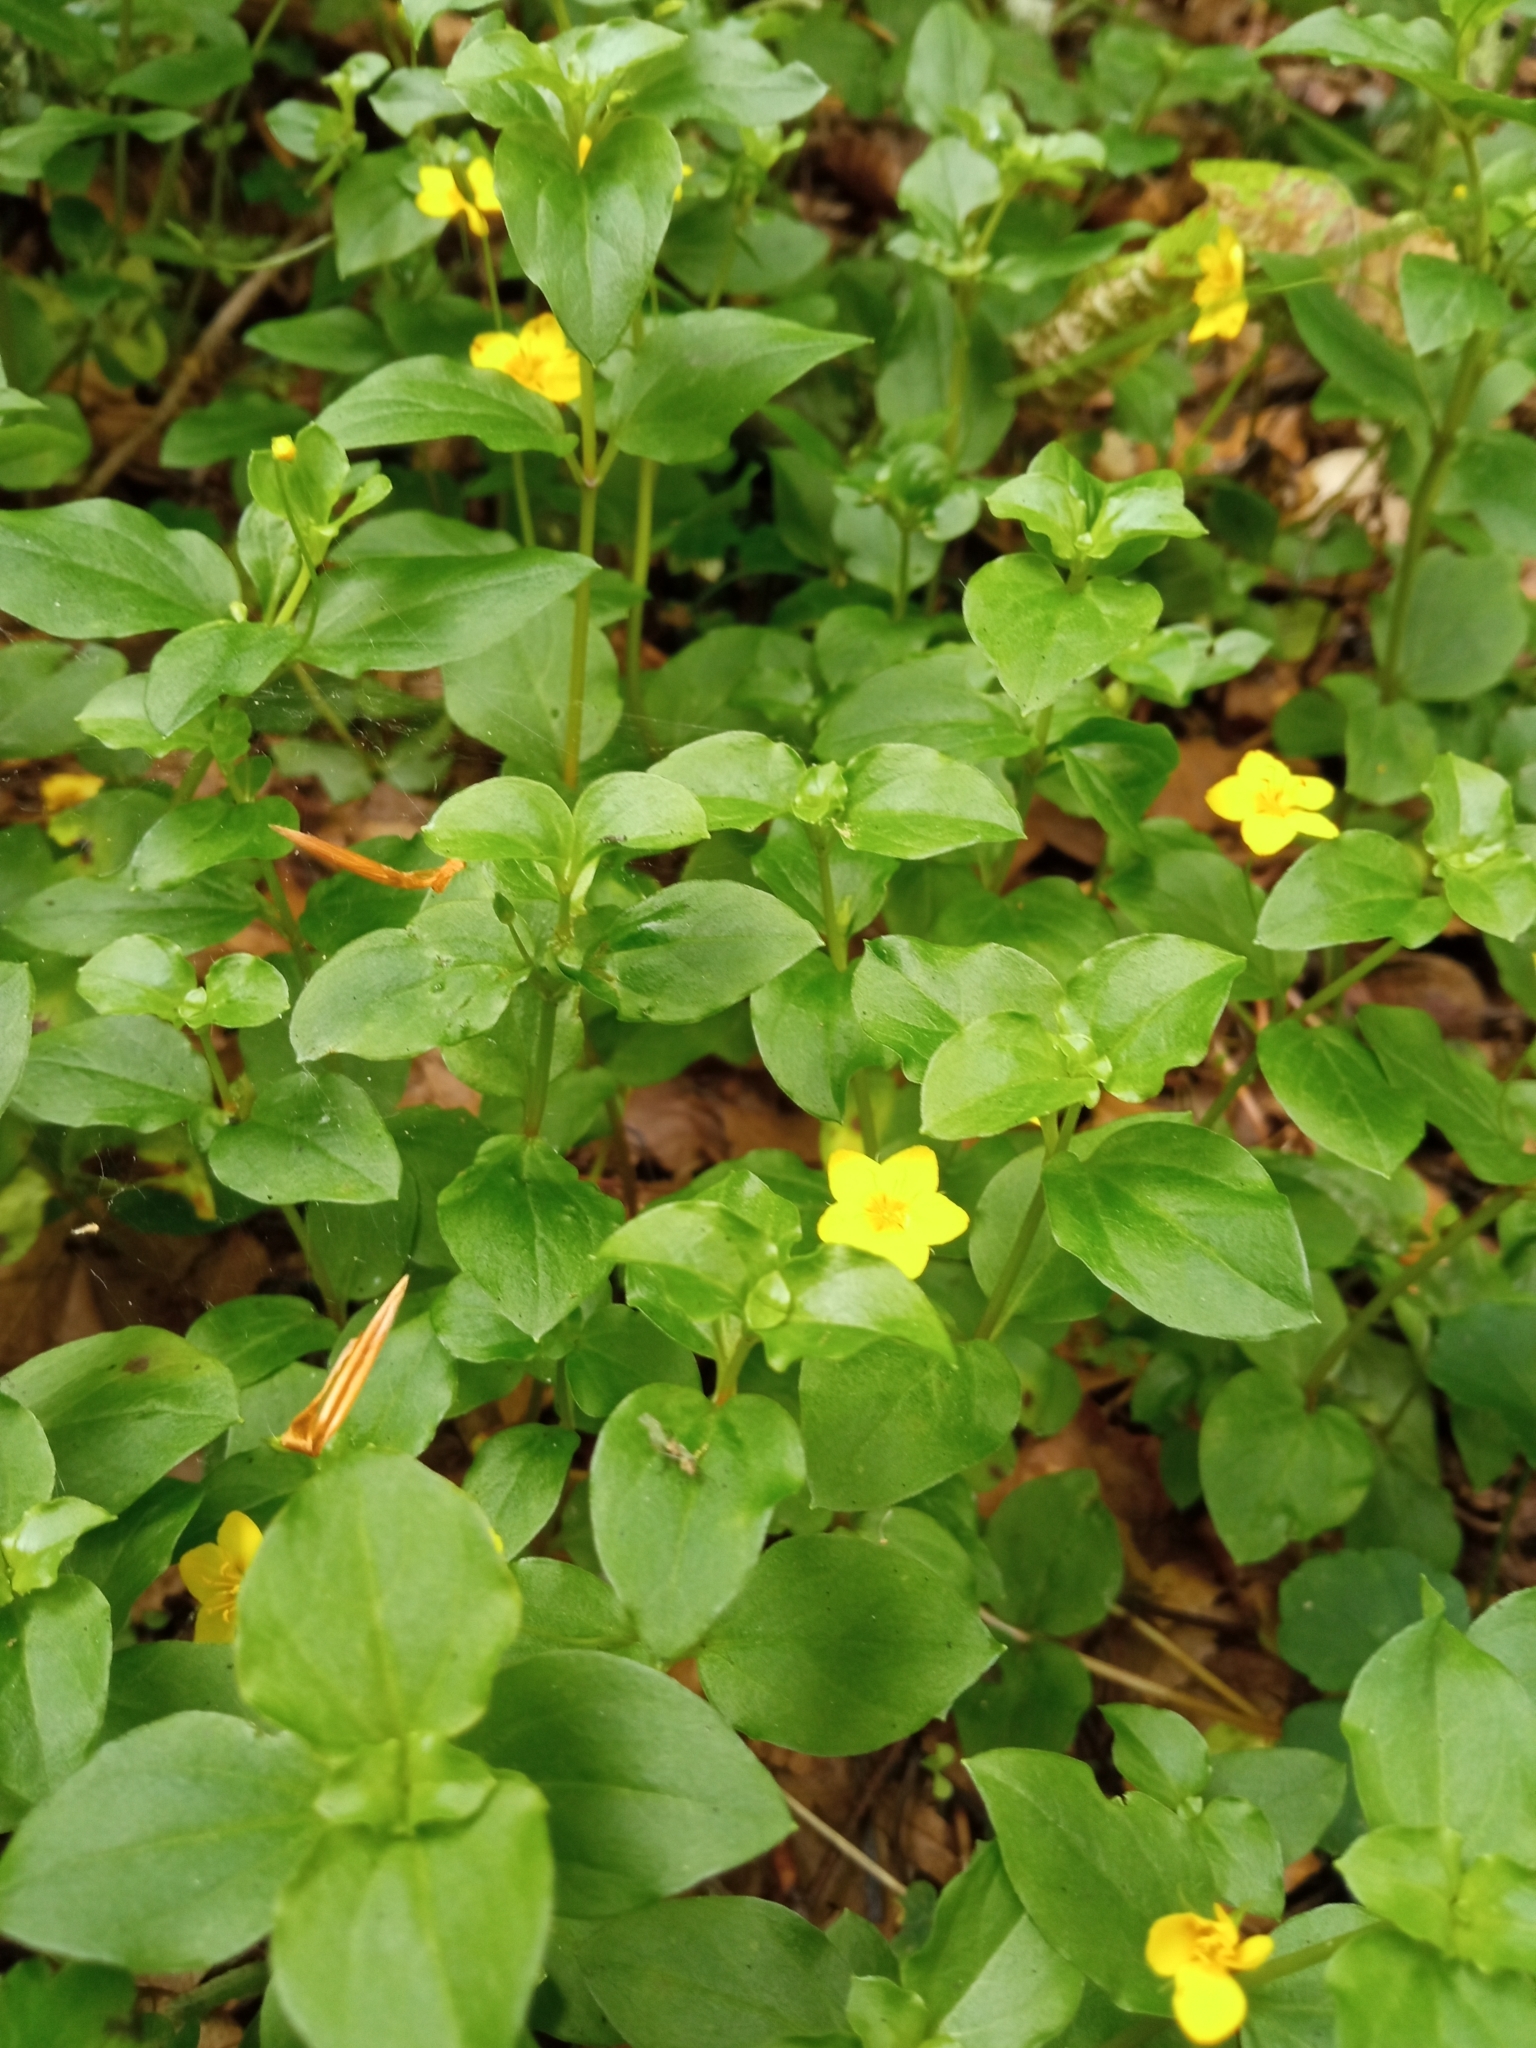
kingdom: Plantae
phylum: Tracheophyta
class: Magnoliopsida
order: Ericales
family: Primulaceae
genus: Lysimachia
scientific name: Lysimachia nemorum
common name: Yellow pimpernel
